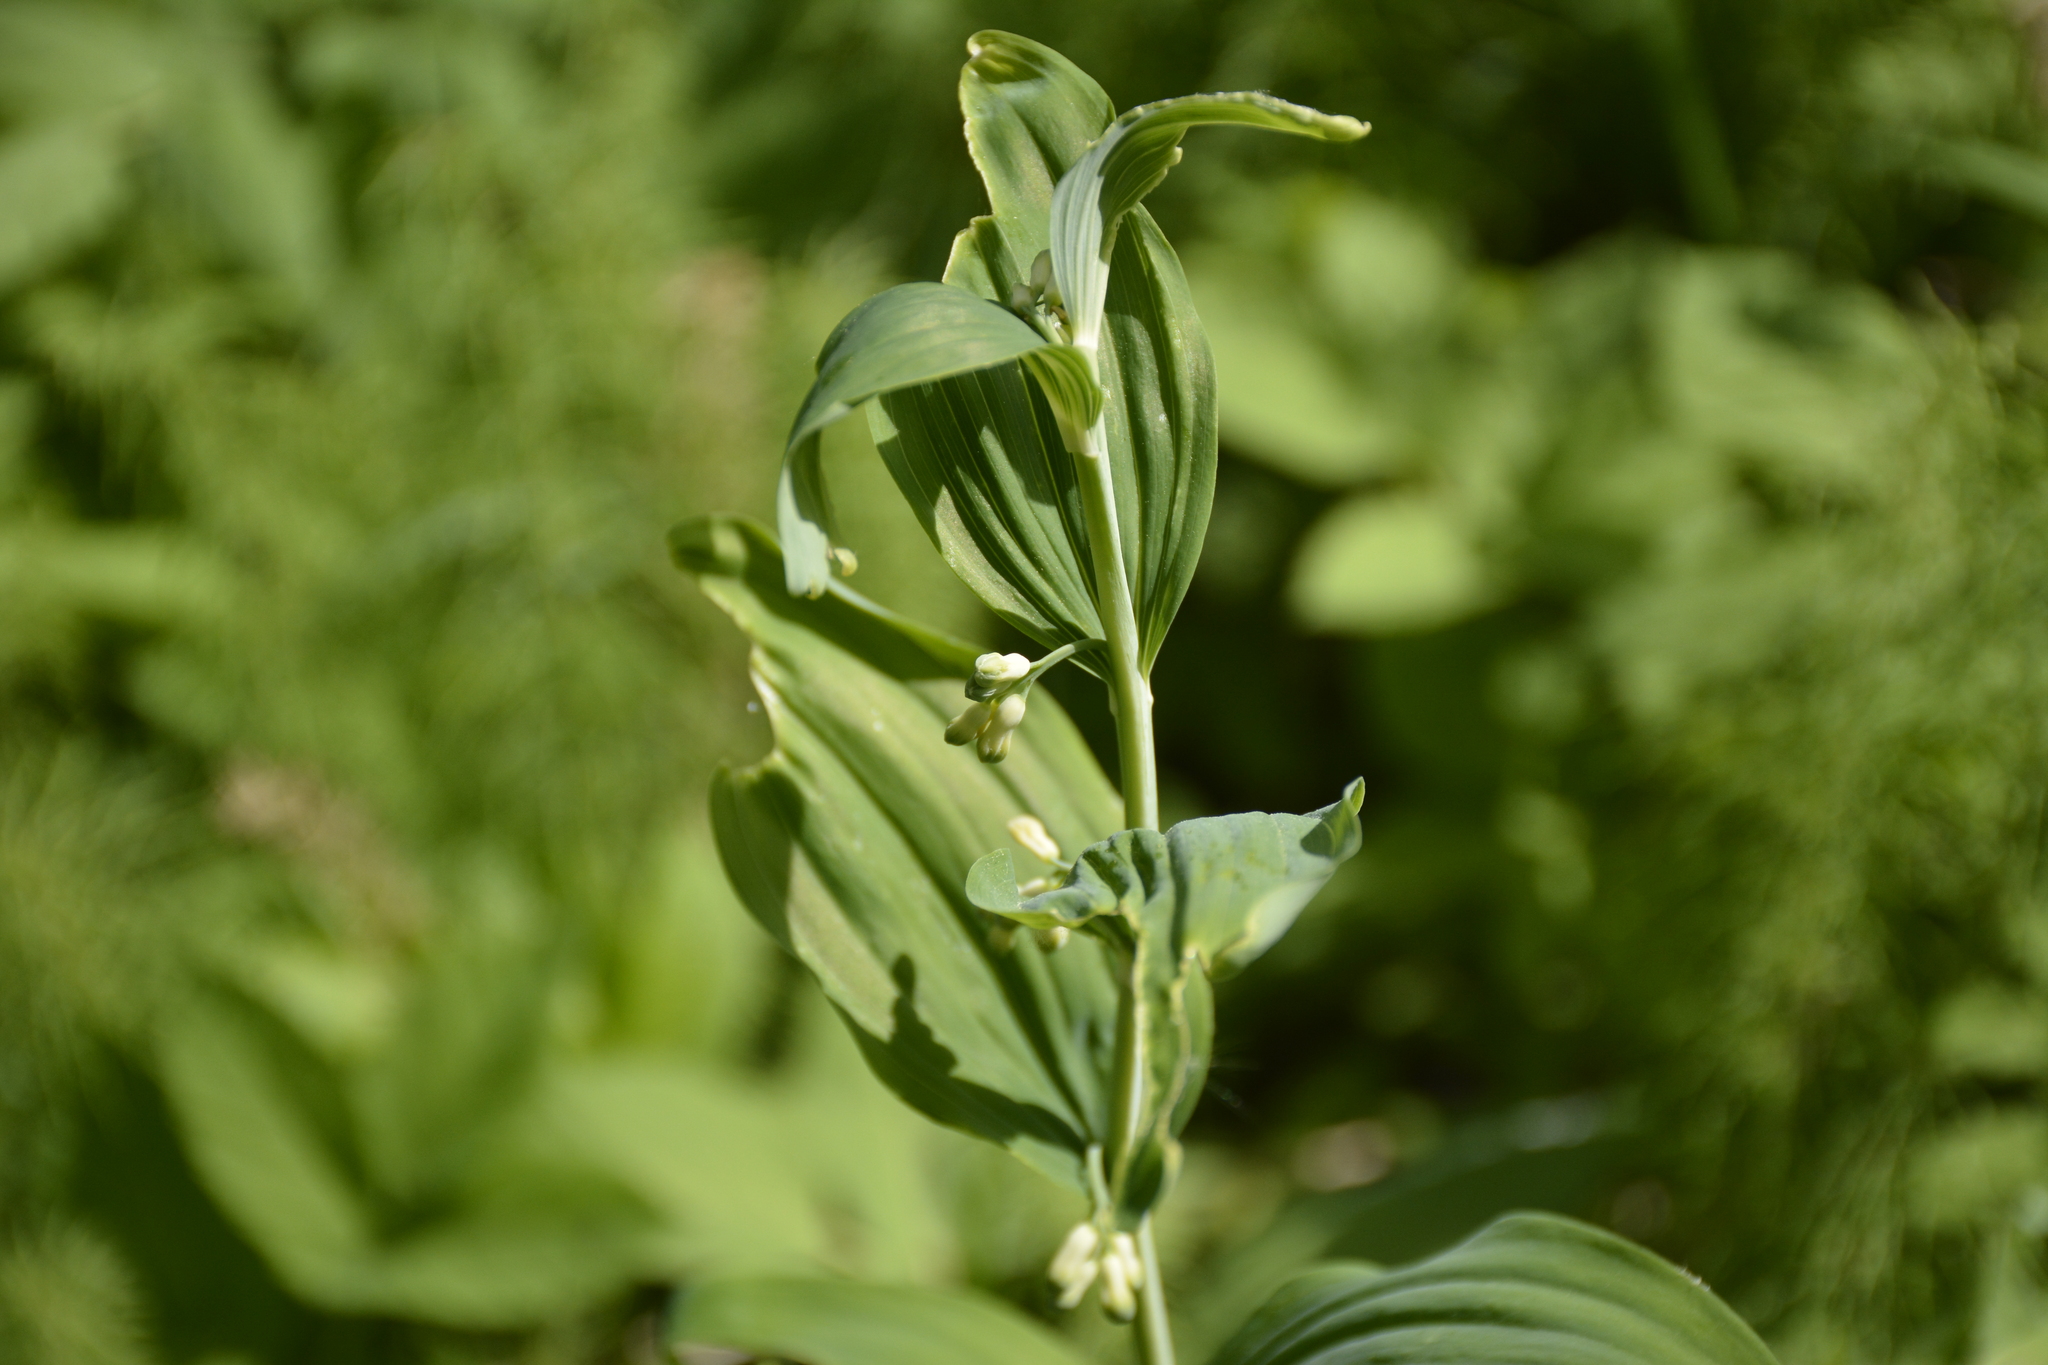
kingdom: Plantae
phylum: Tracheophyta
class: Liliopsida
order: Asparagales
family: Asparagaceae
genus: Polygonatum
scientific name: Polygonatum multiflorum
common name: Solomon's-seal
